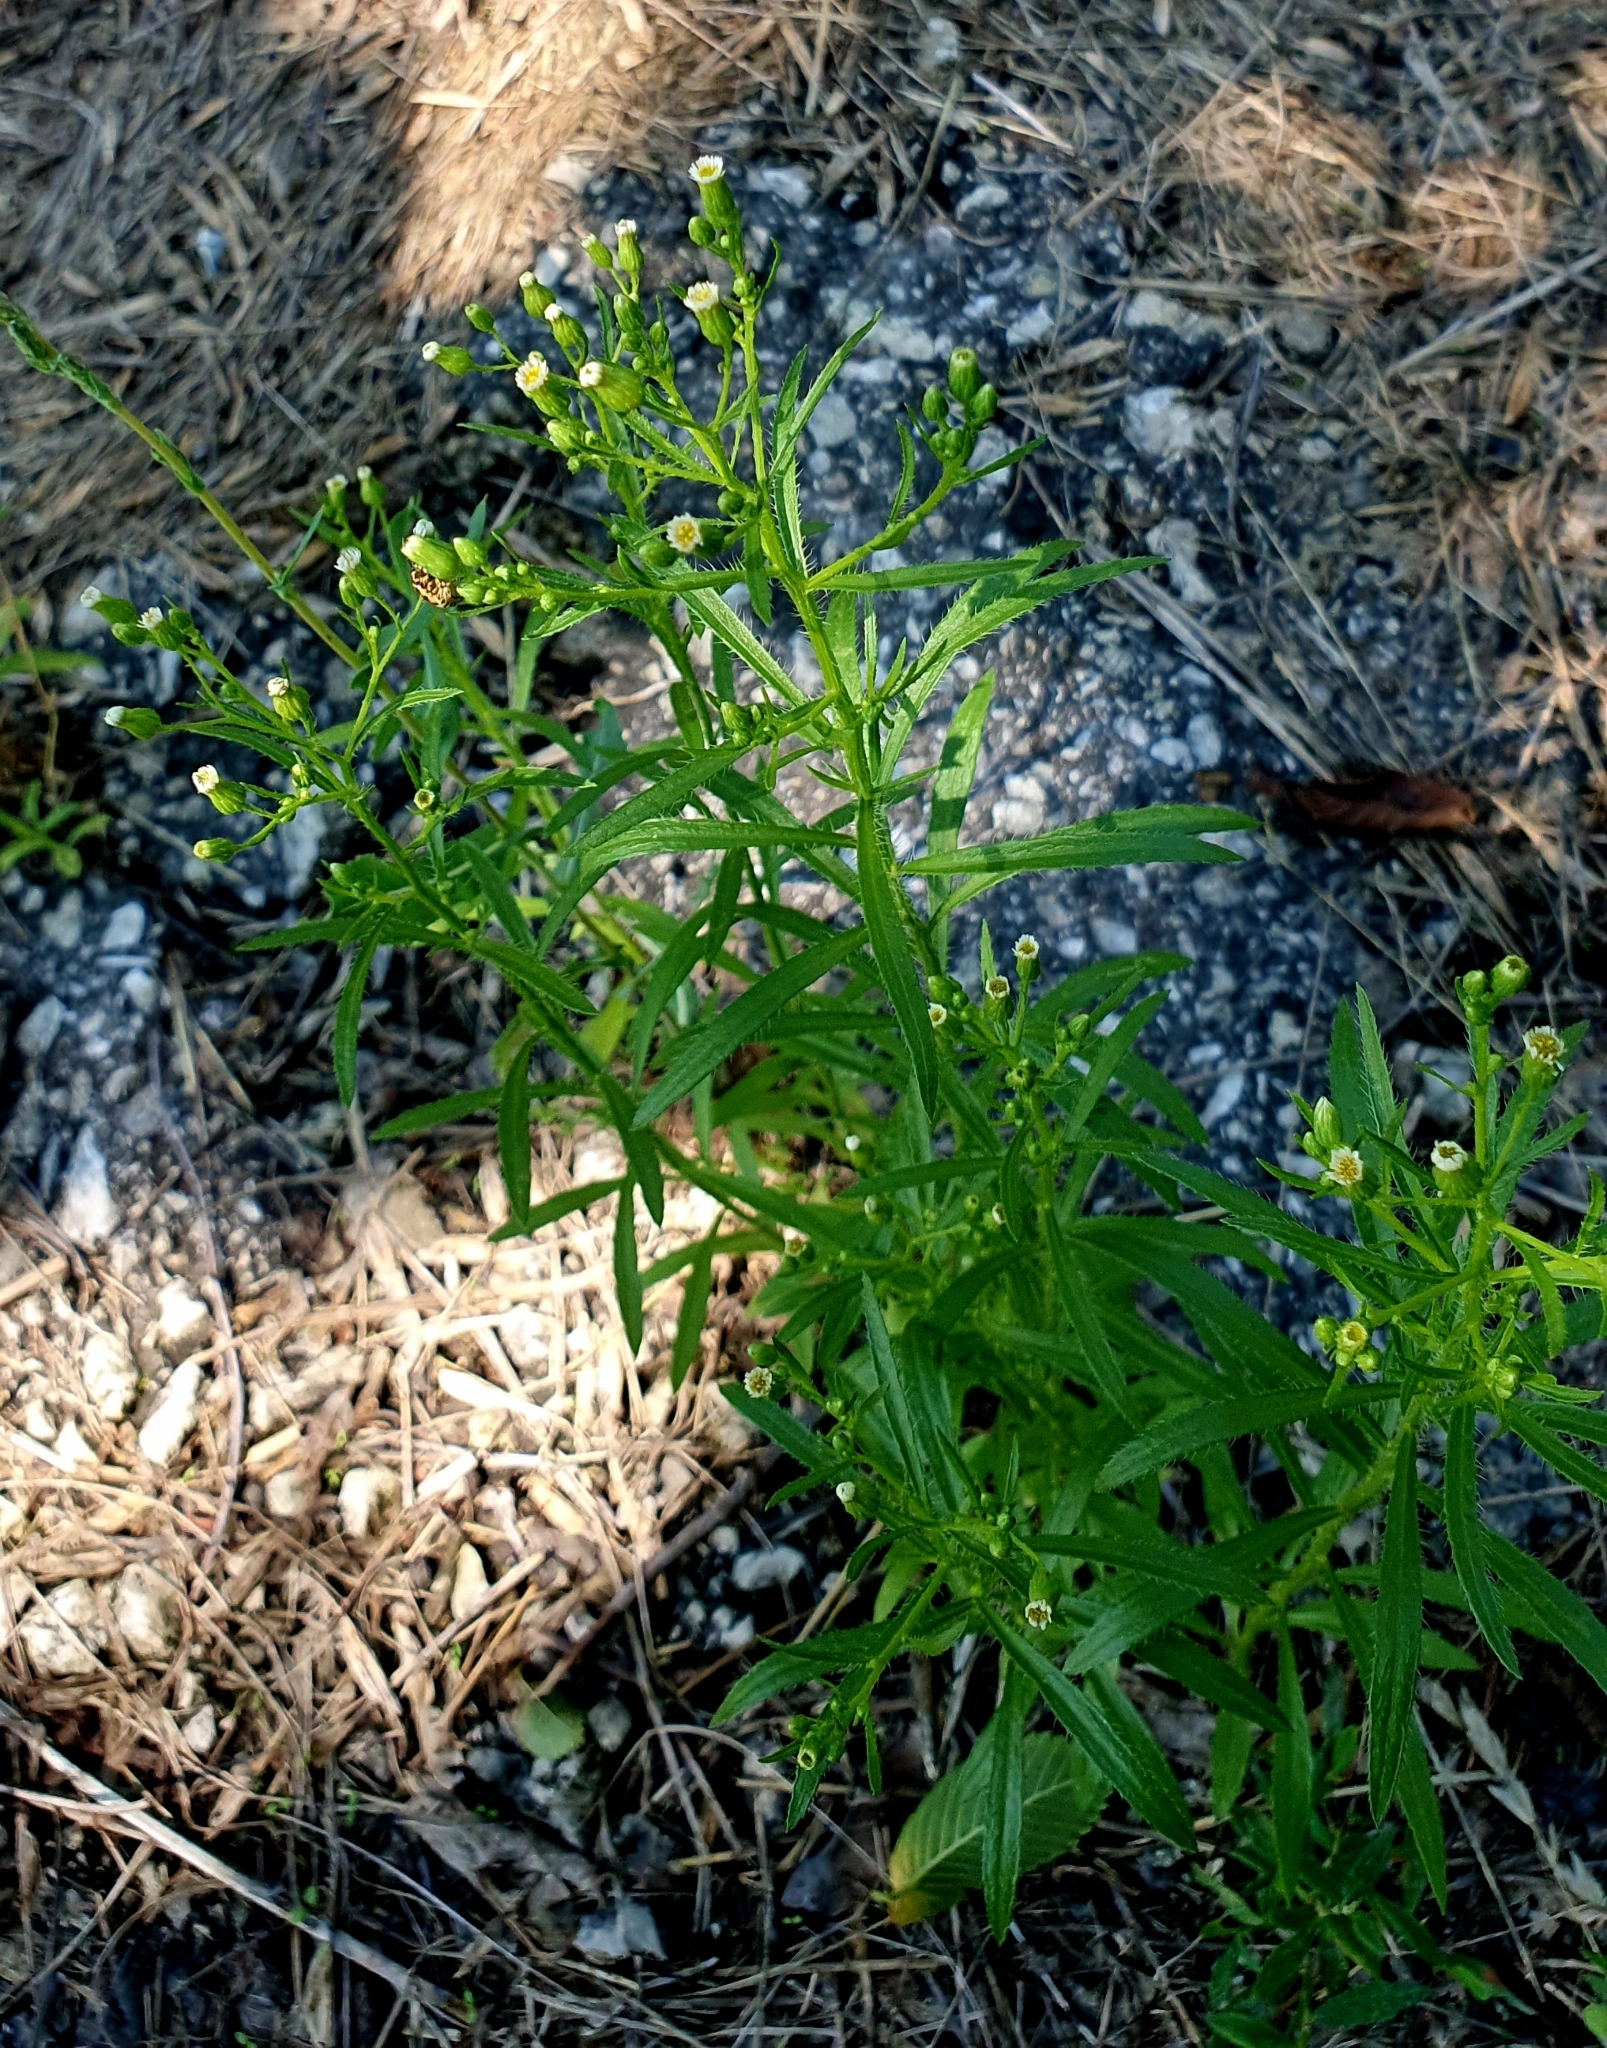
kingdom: Plantae
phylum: Tracheophyta
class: Magnoliopsida
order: Asterales
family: Asteraceae
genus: Erigeron
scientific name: Erigeron canadensis
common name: Canadian fleabane
